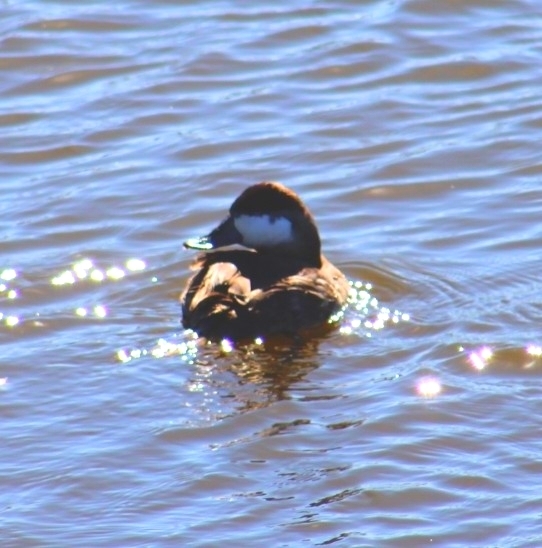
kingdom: Animalia
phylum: Chordata
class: Aves
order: Anseriformes
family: Anatidae
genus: Oxyura
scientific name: Oxyura jamaicensis
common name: Ruddy duck
